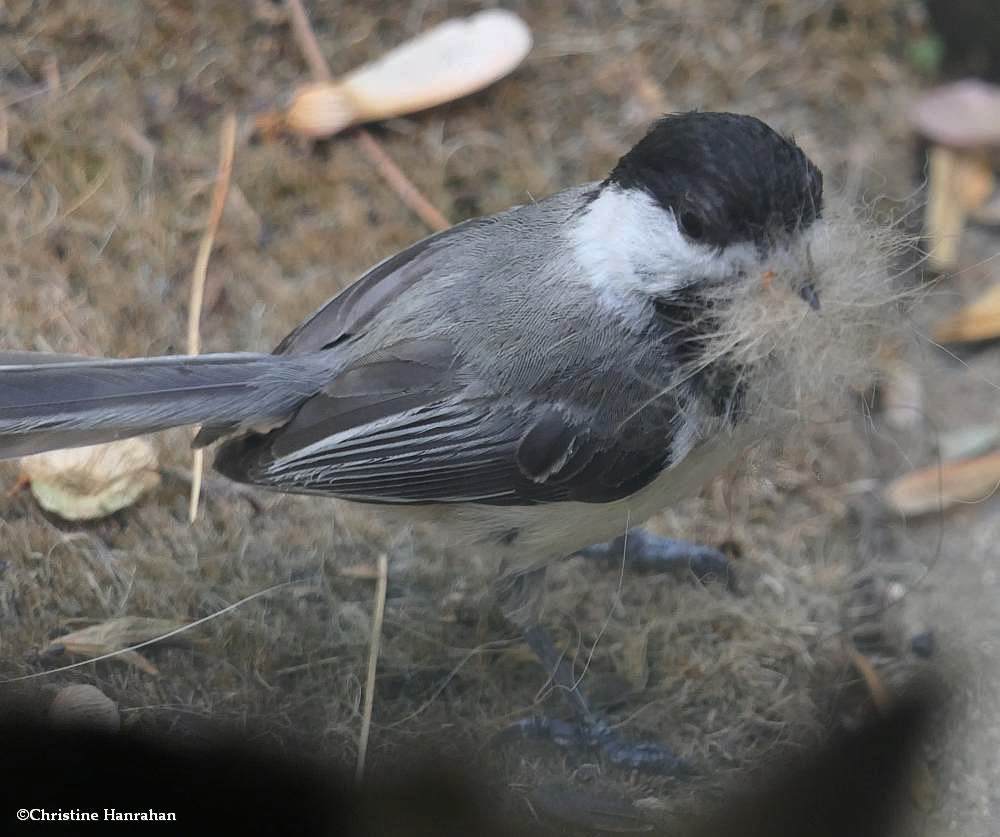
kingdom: Animalia
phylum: Chordata
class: Aves
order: Passeriformes
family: Paridae
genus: Poecile
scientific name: Poecile atricapillus
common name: Black-capped chickadee
